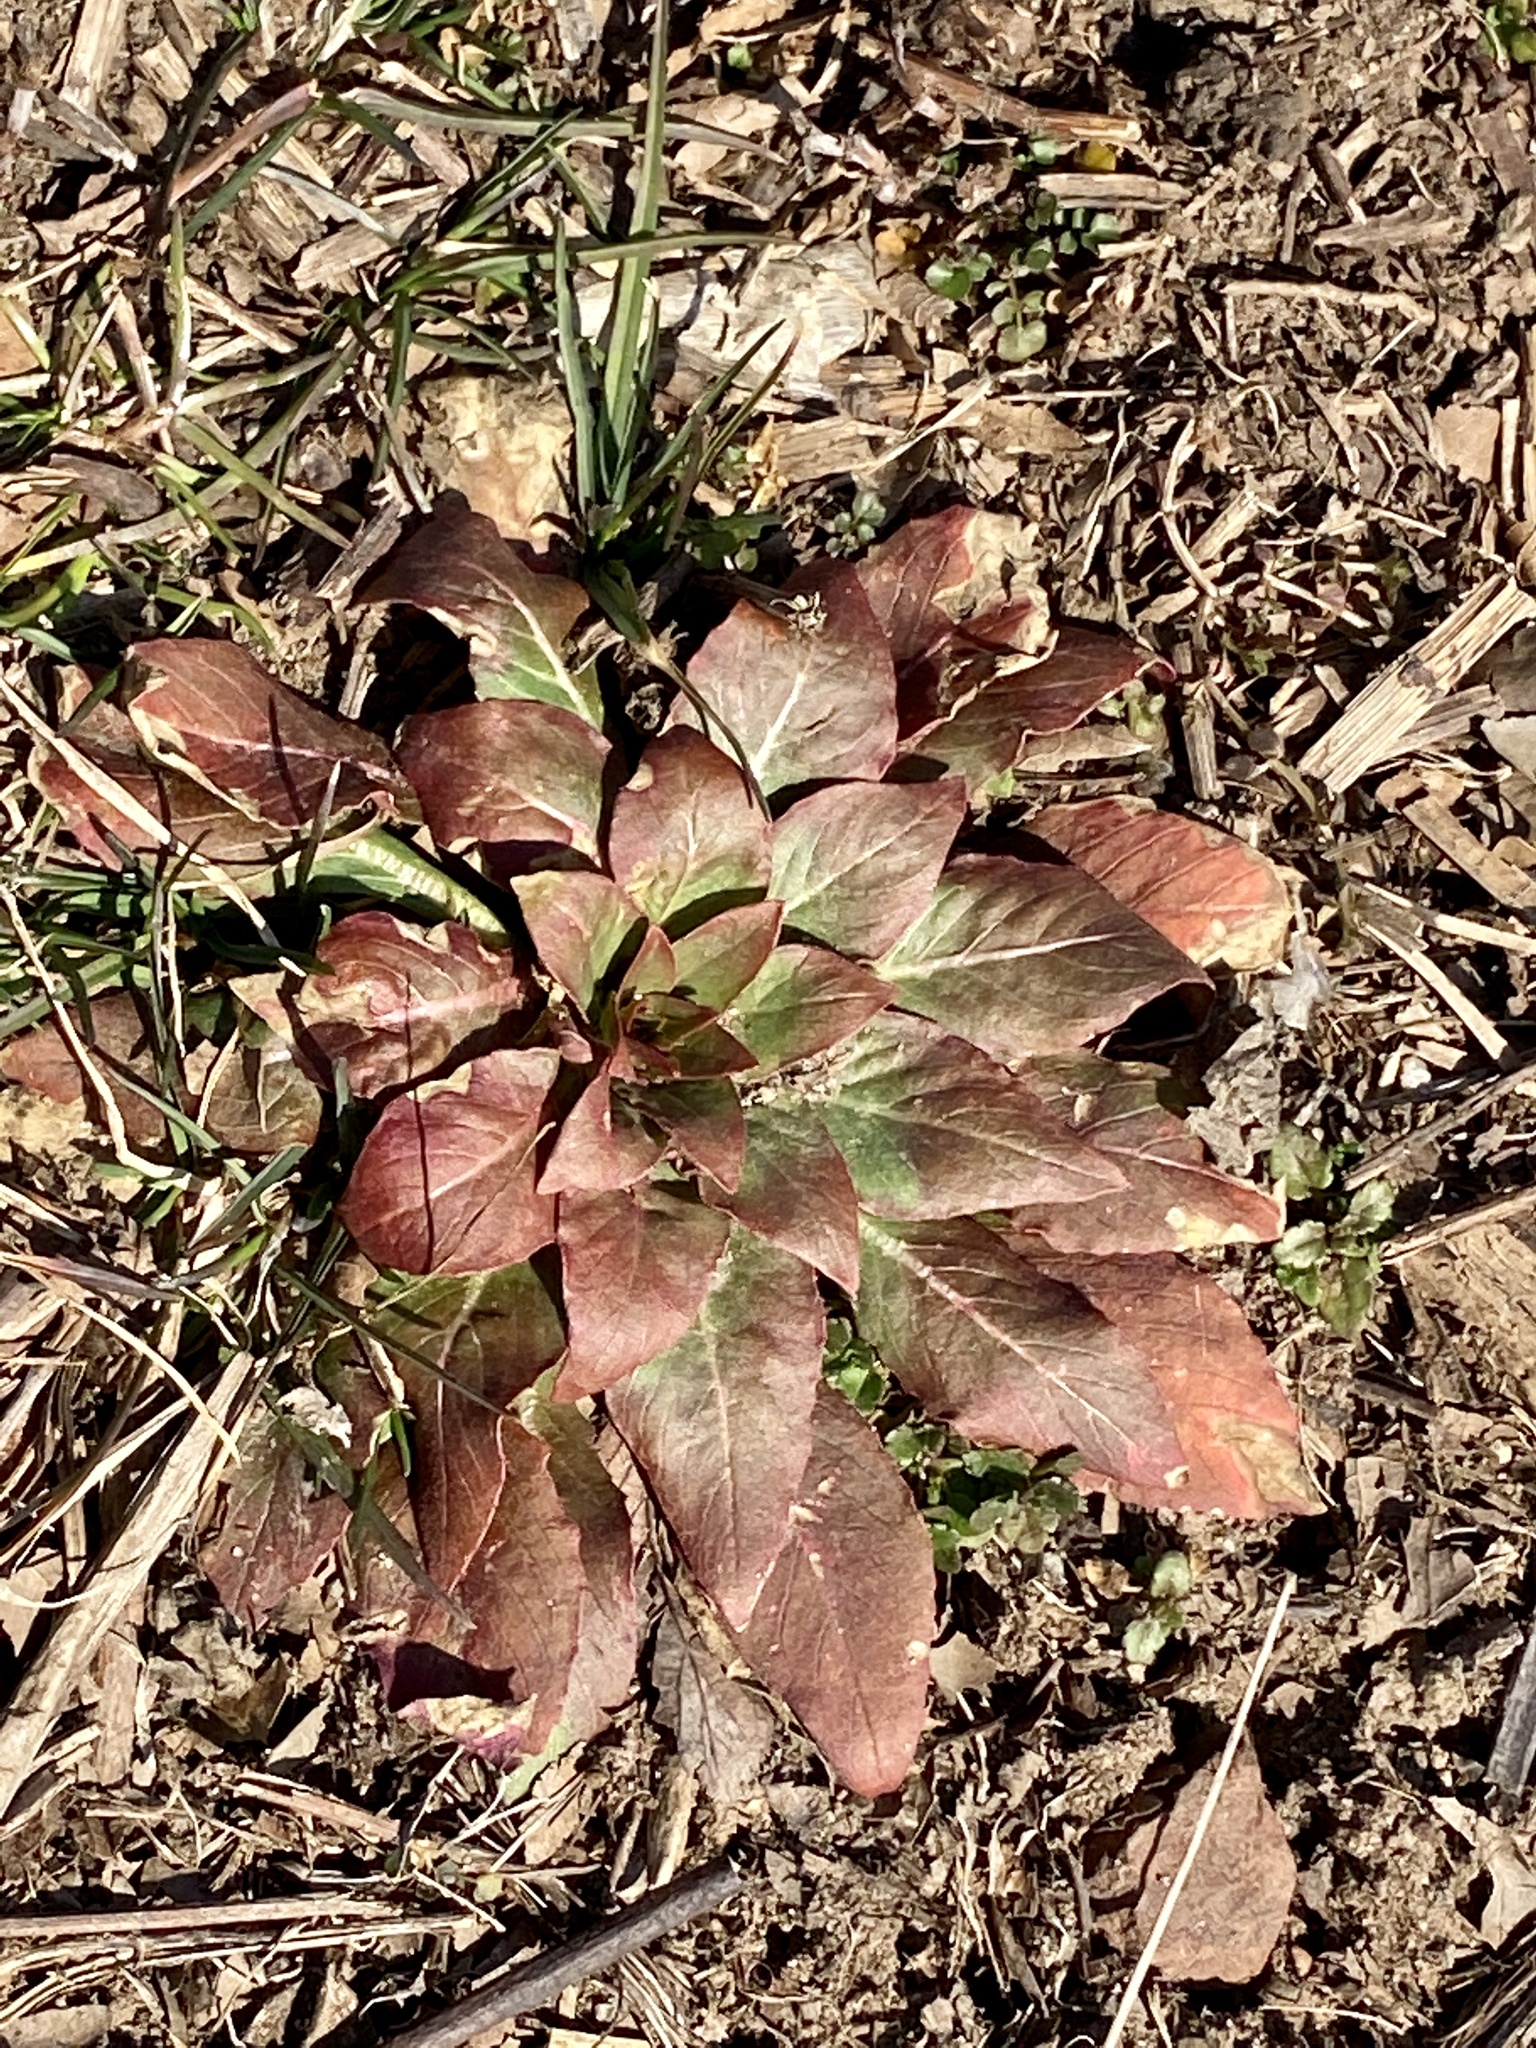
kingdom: Plantae
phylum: Tracheophyta
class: Magnoliopsida
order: Myrtales
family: Onagraceae
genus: Oenothera
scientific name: Oenothera biennis
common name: Common evening-primrose
